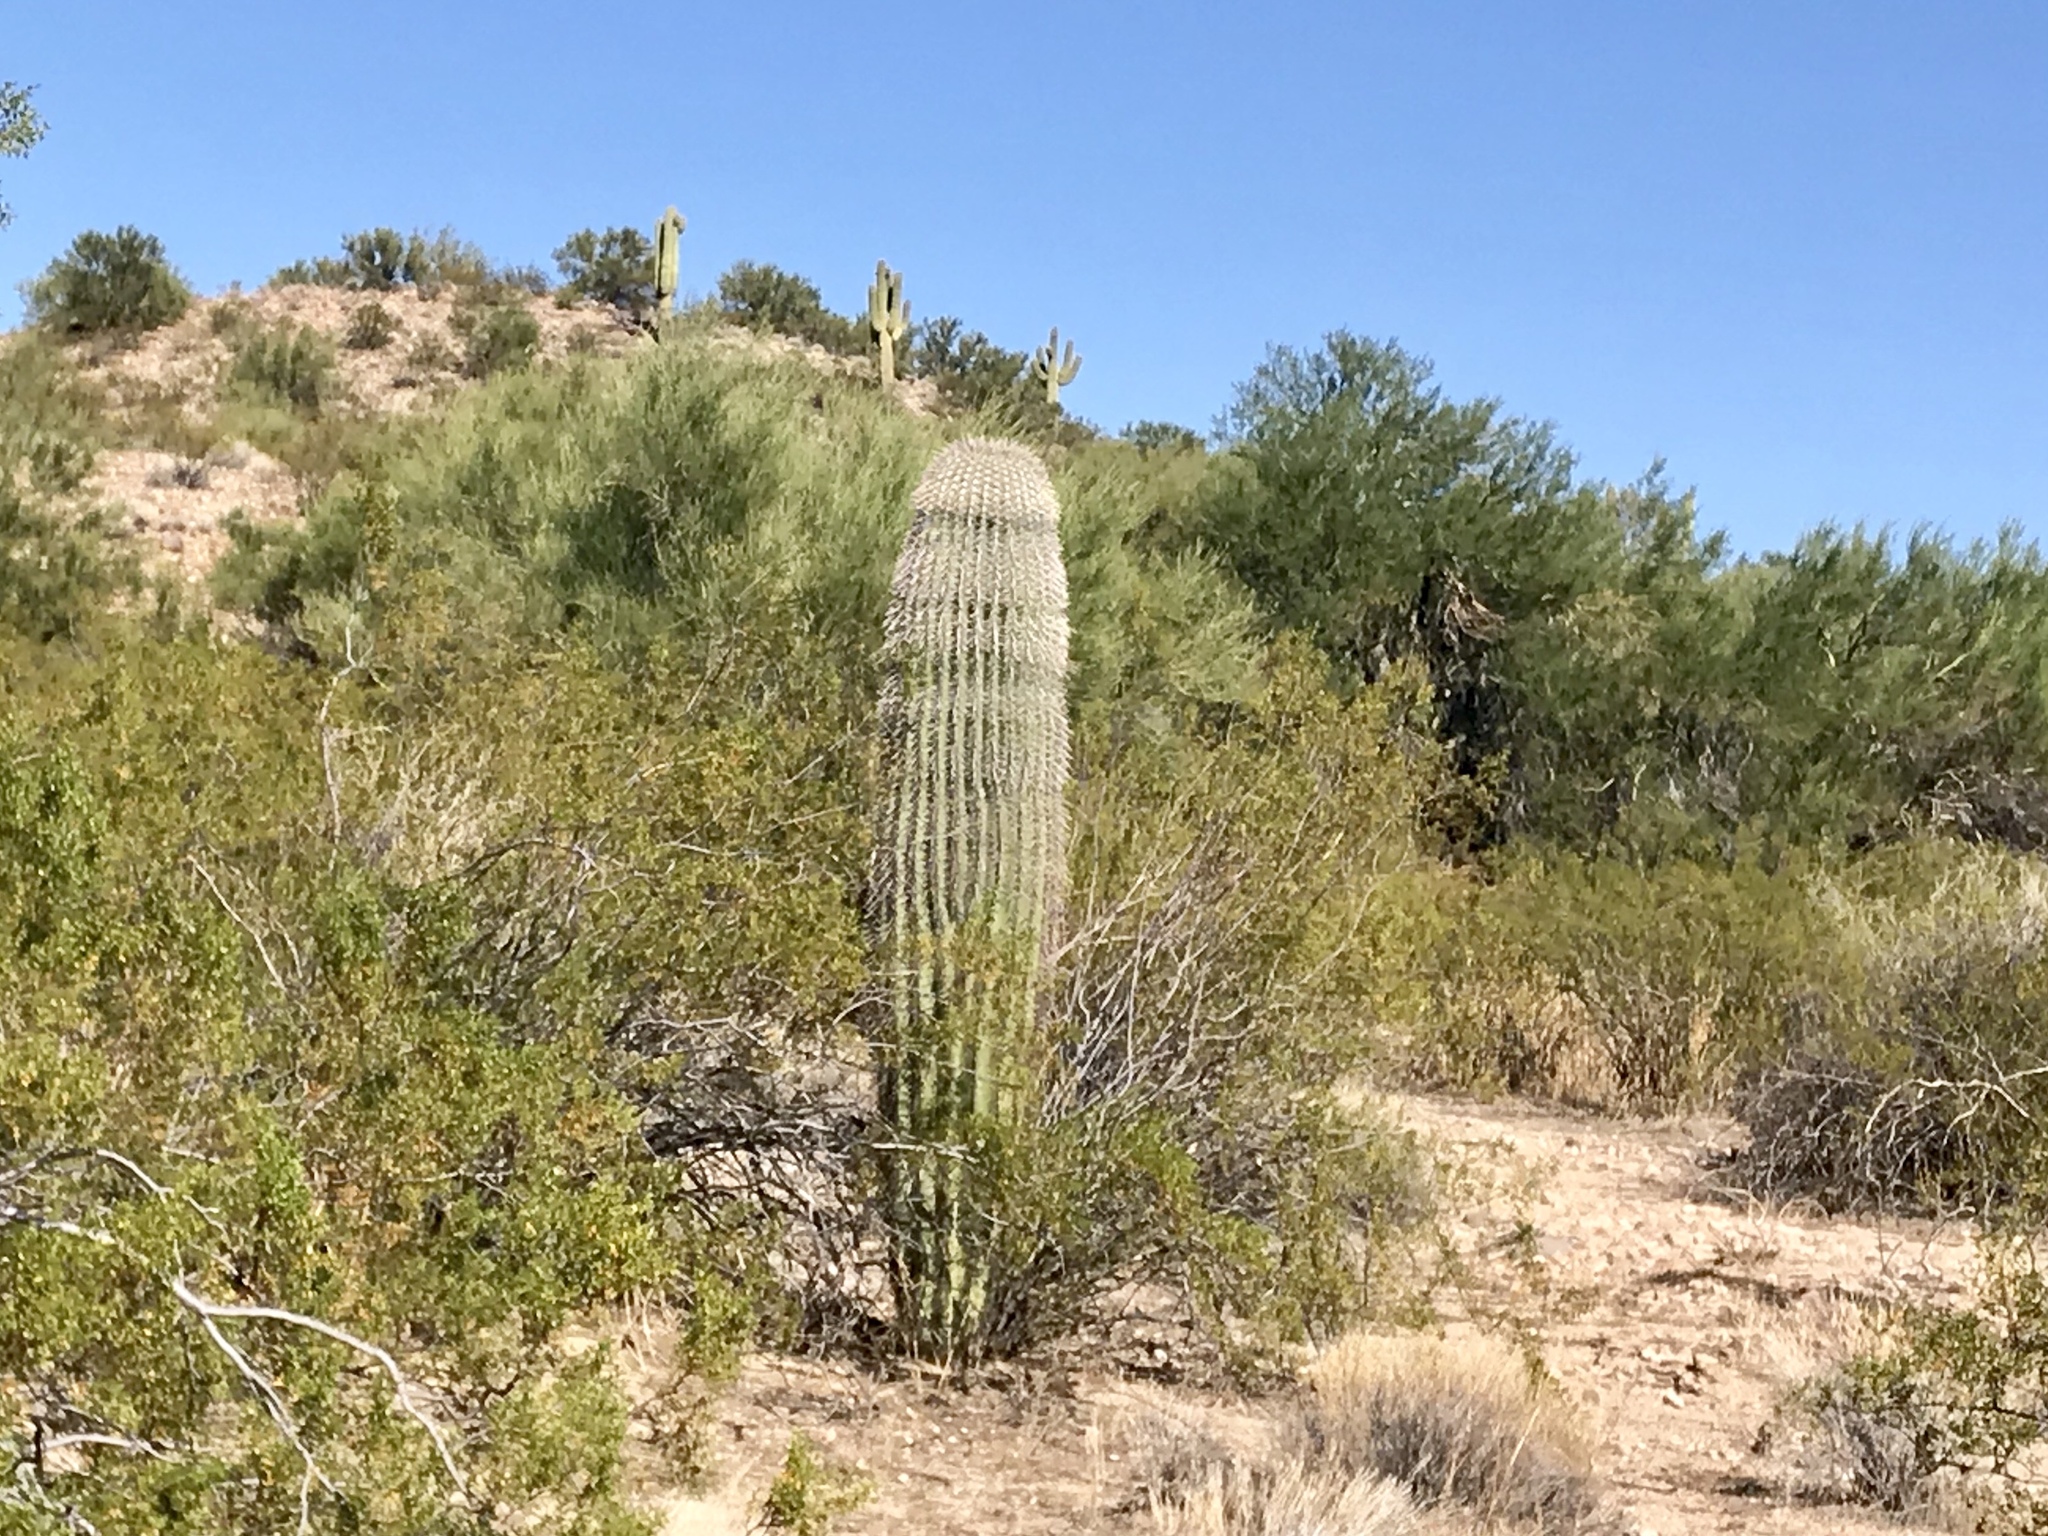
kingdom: Plantae
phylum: Tracheophyta
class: Magnoliopsida
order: Caryophyllales
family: Cactaceae
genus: Carnegiea
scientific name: Carnegiea gigantea
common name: Saguaro
